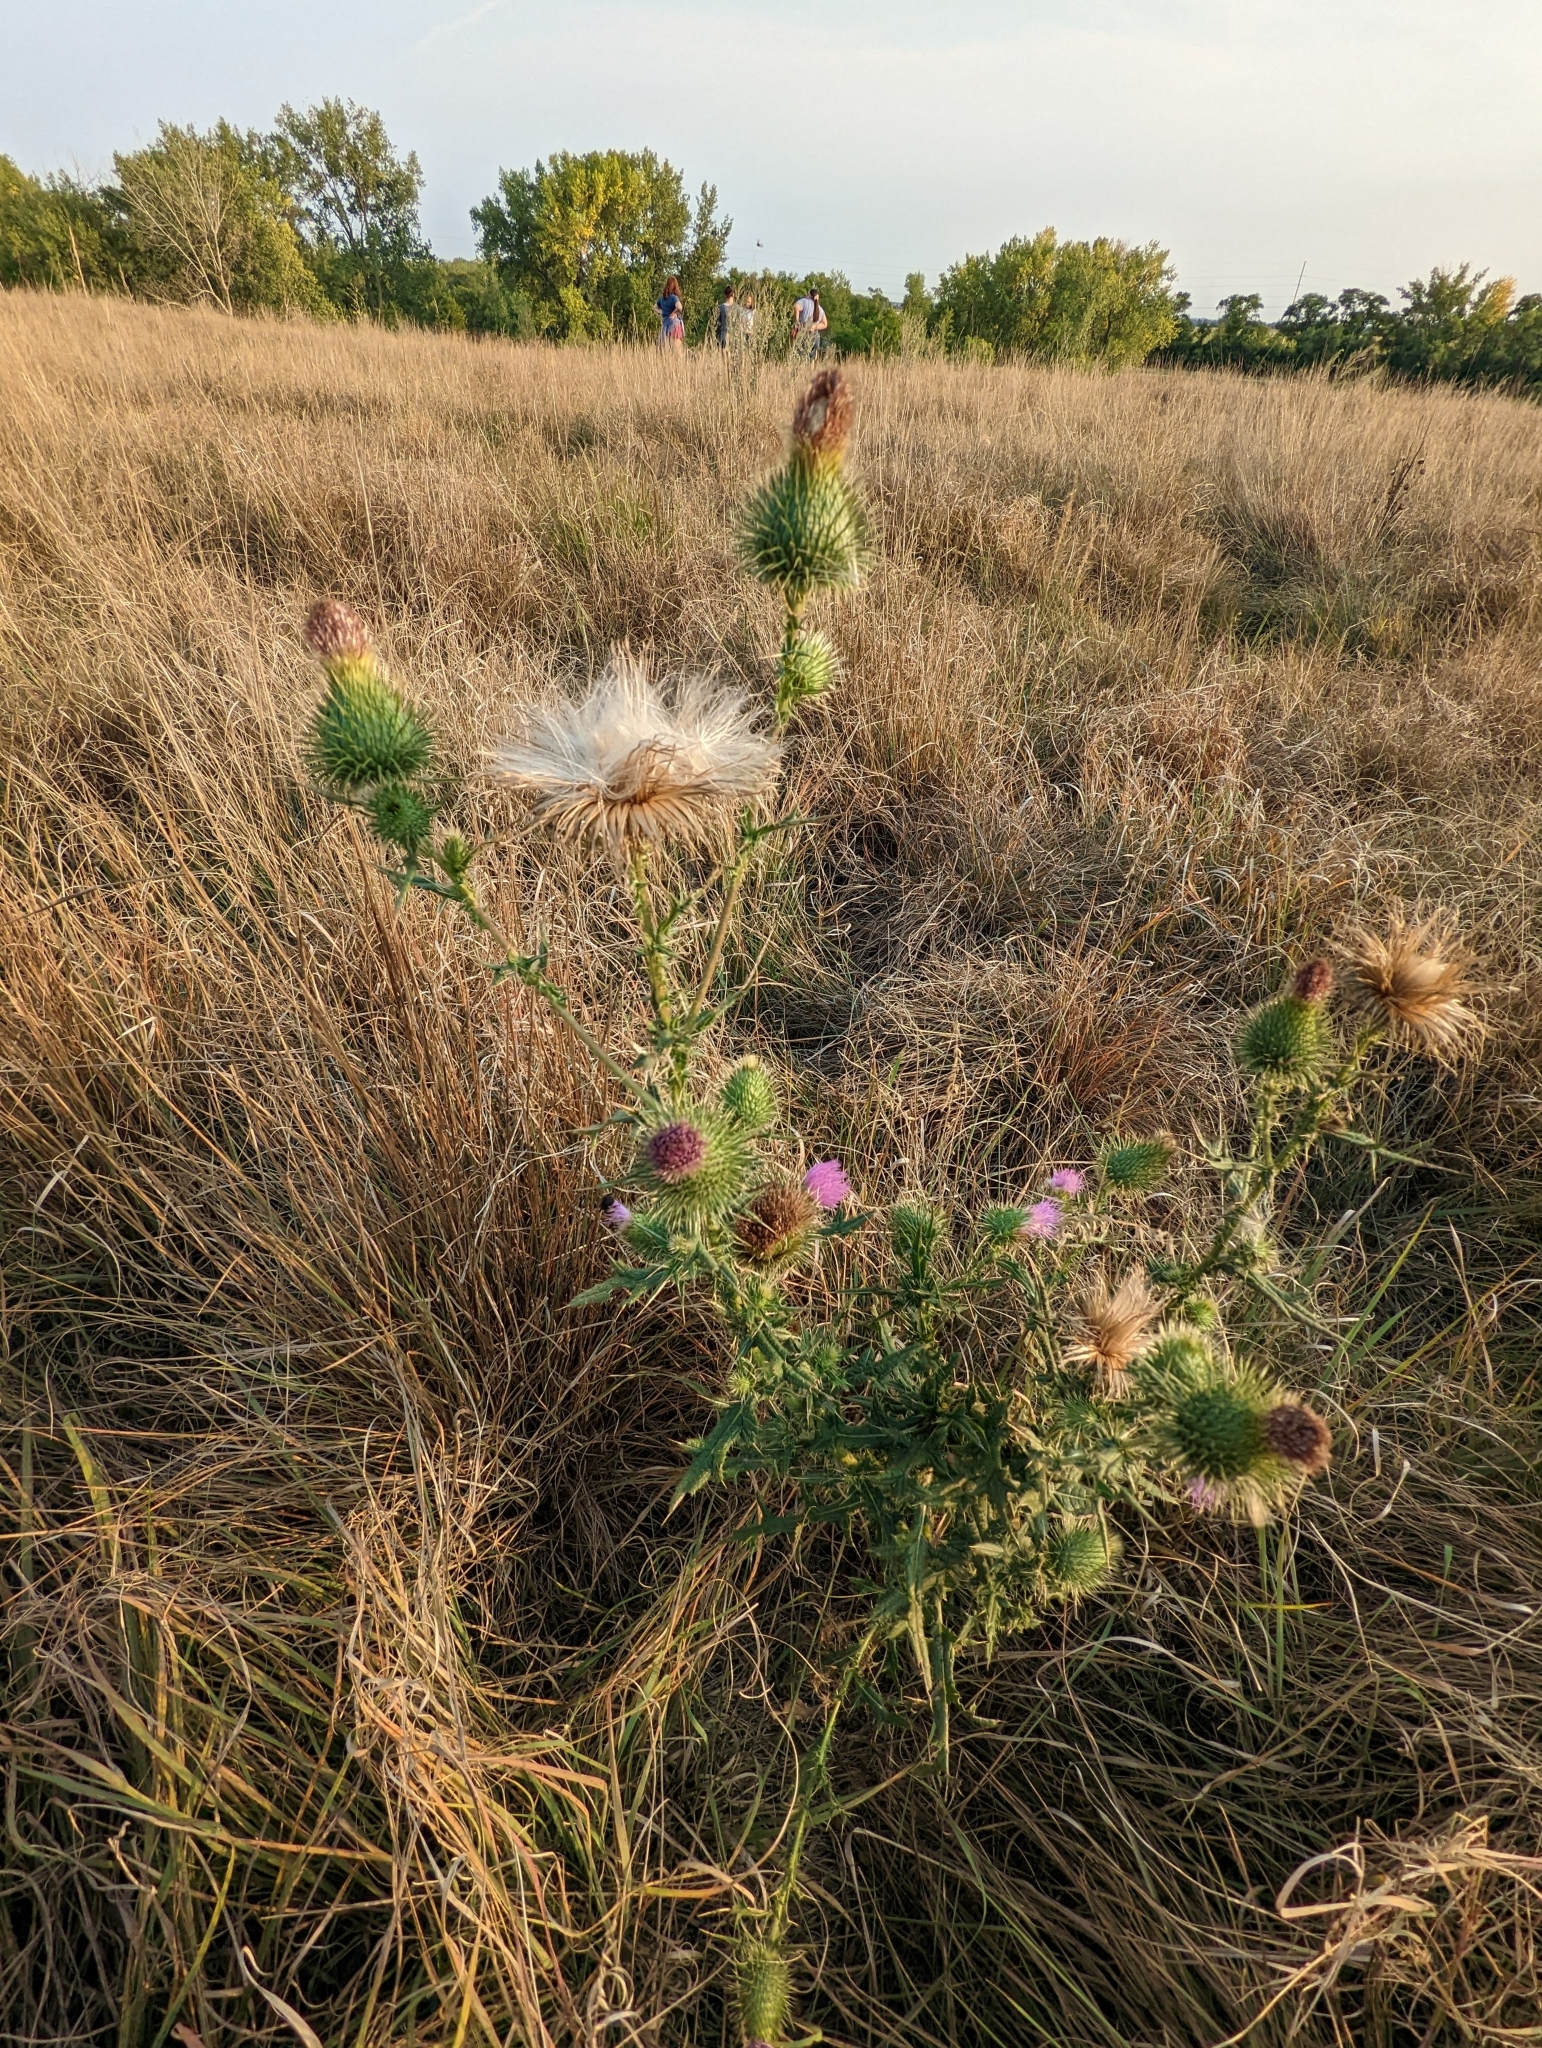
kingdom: Plantae
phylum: Tracheophyta
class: Magnoliopsida
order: Asterales
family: Asteraceae
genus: Cirsium
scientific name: Cirsium vulgare
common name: Bull thistle
